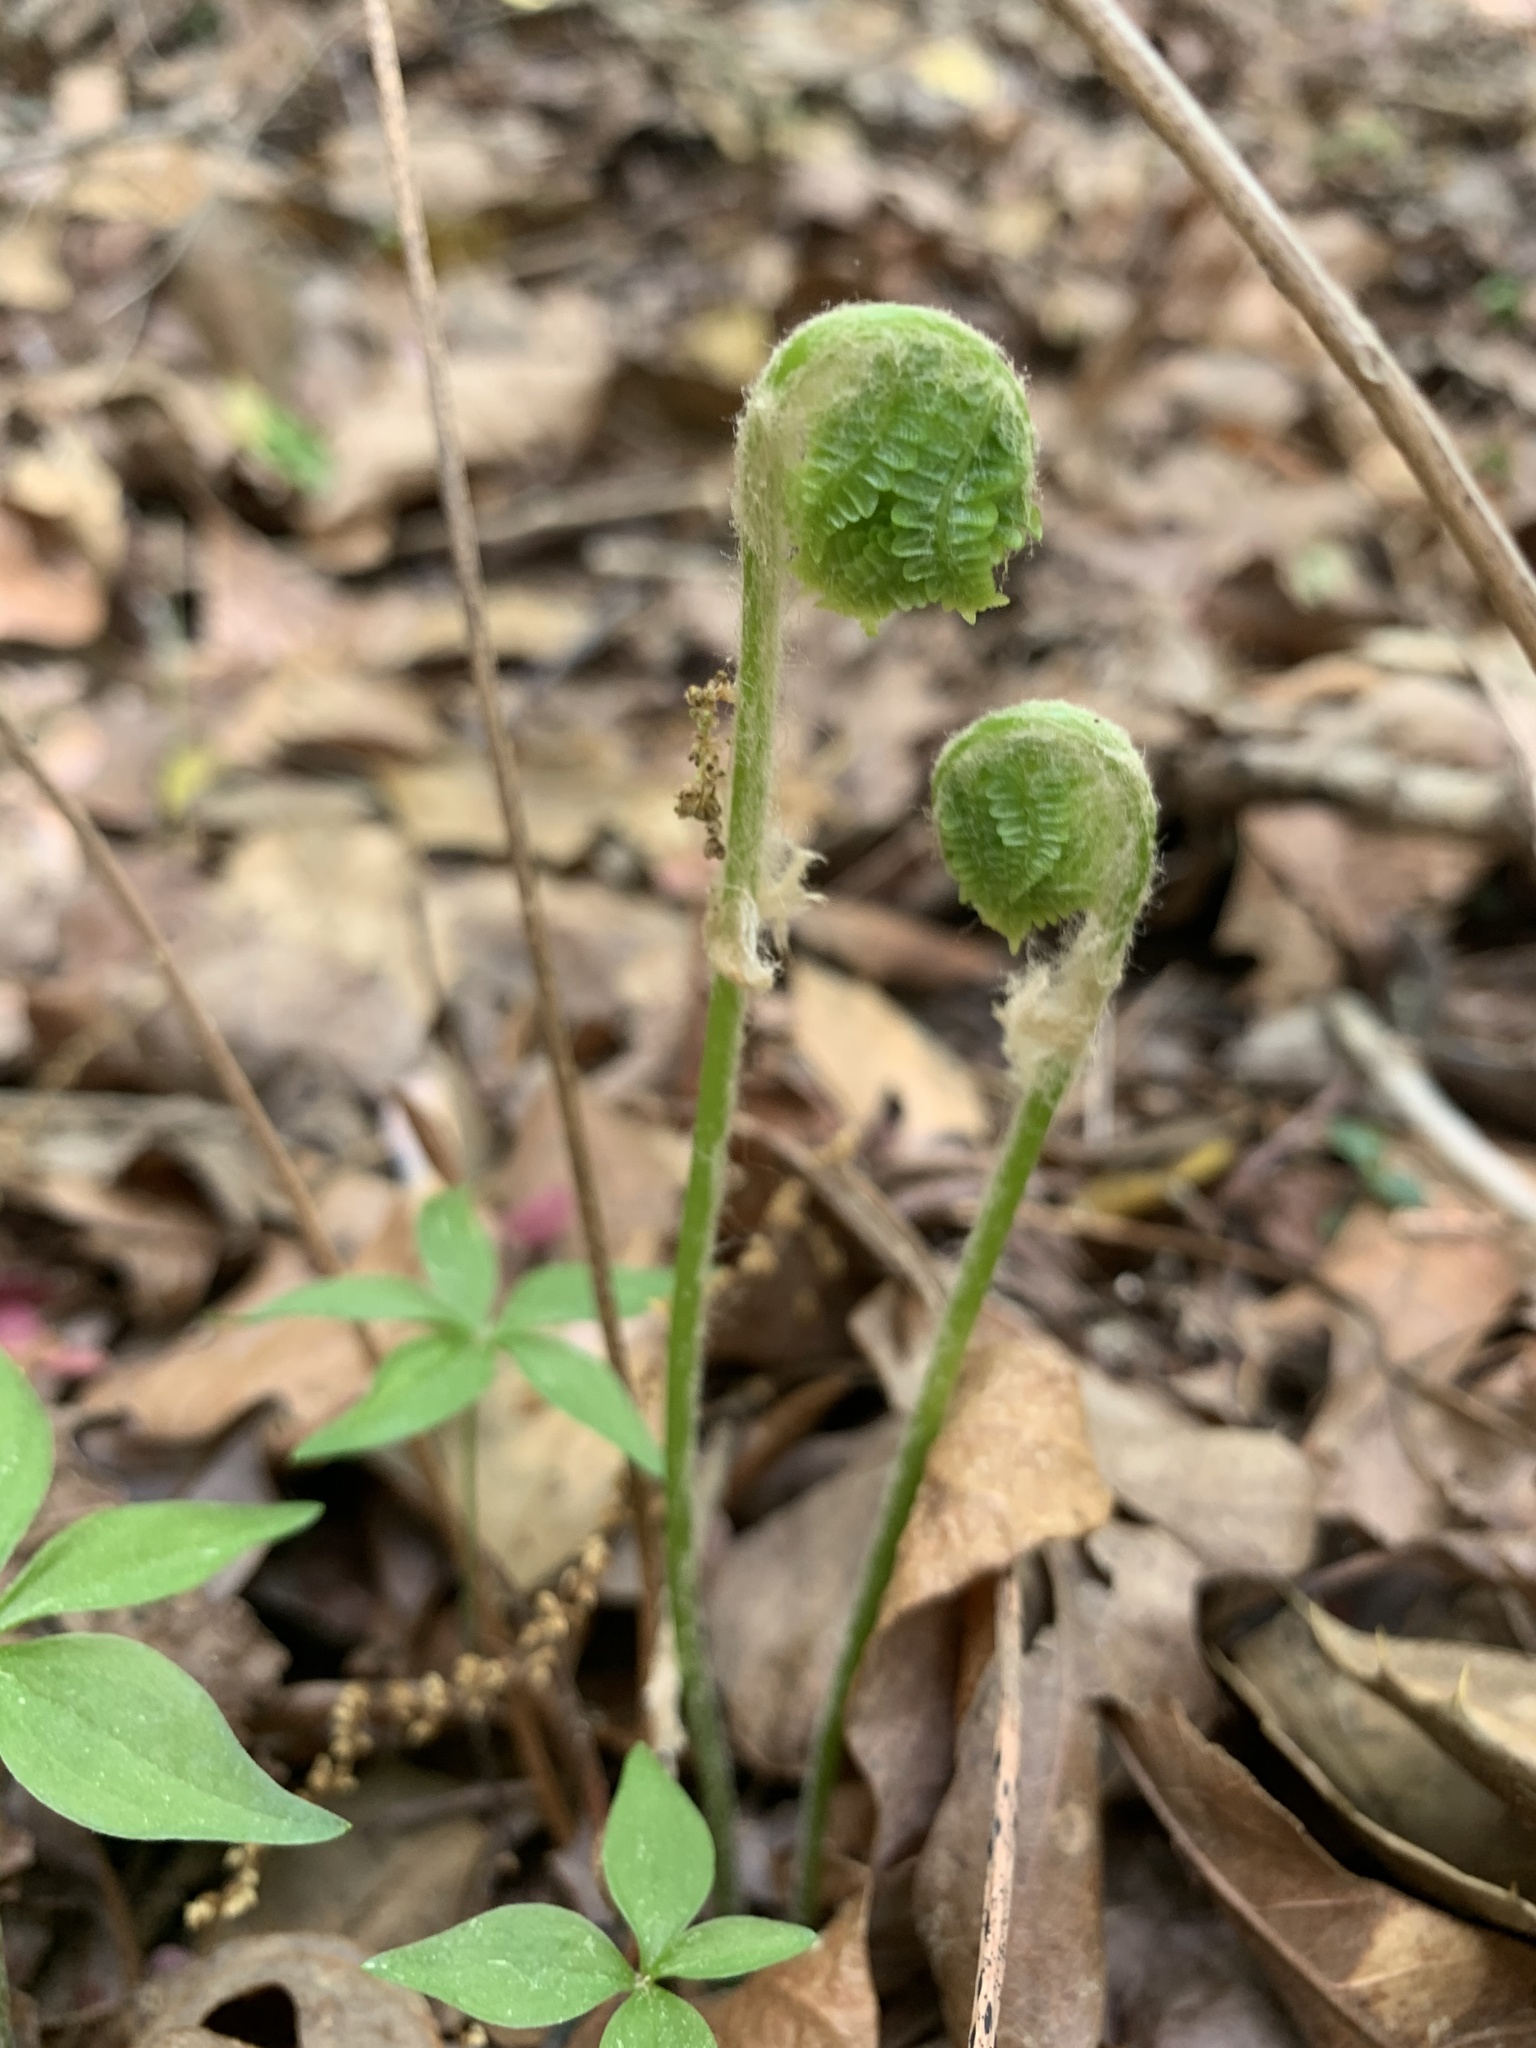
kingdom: Plantae
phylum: Tracheophyta
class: Polypodiopsida
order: Osmundales
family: Osmundaceae
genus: Osmundastrum
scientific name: Osmundastrum cinnamomeum
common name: Cinnamon fern
